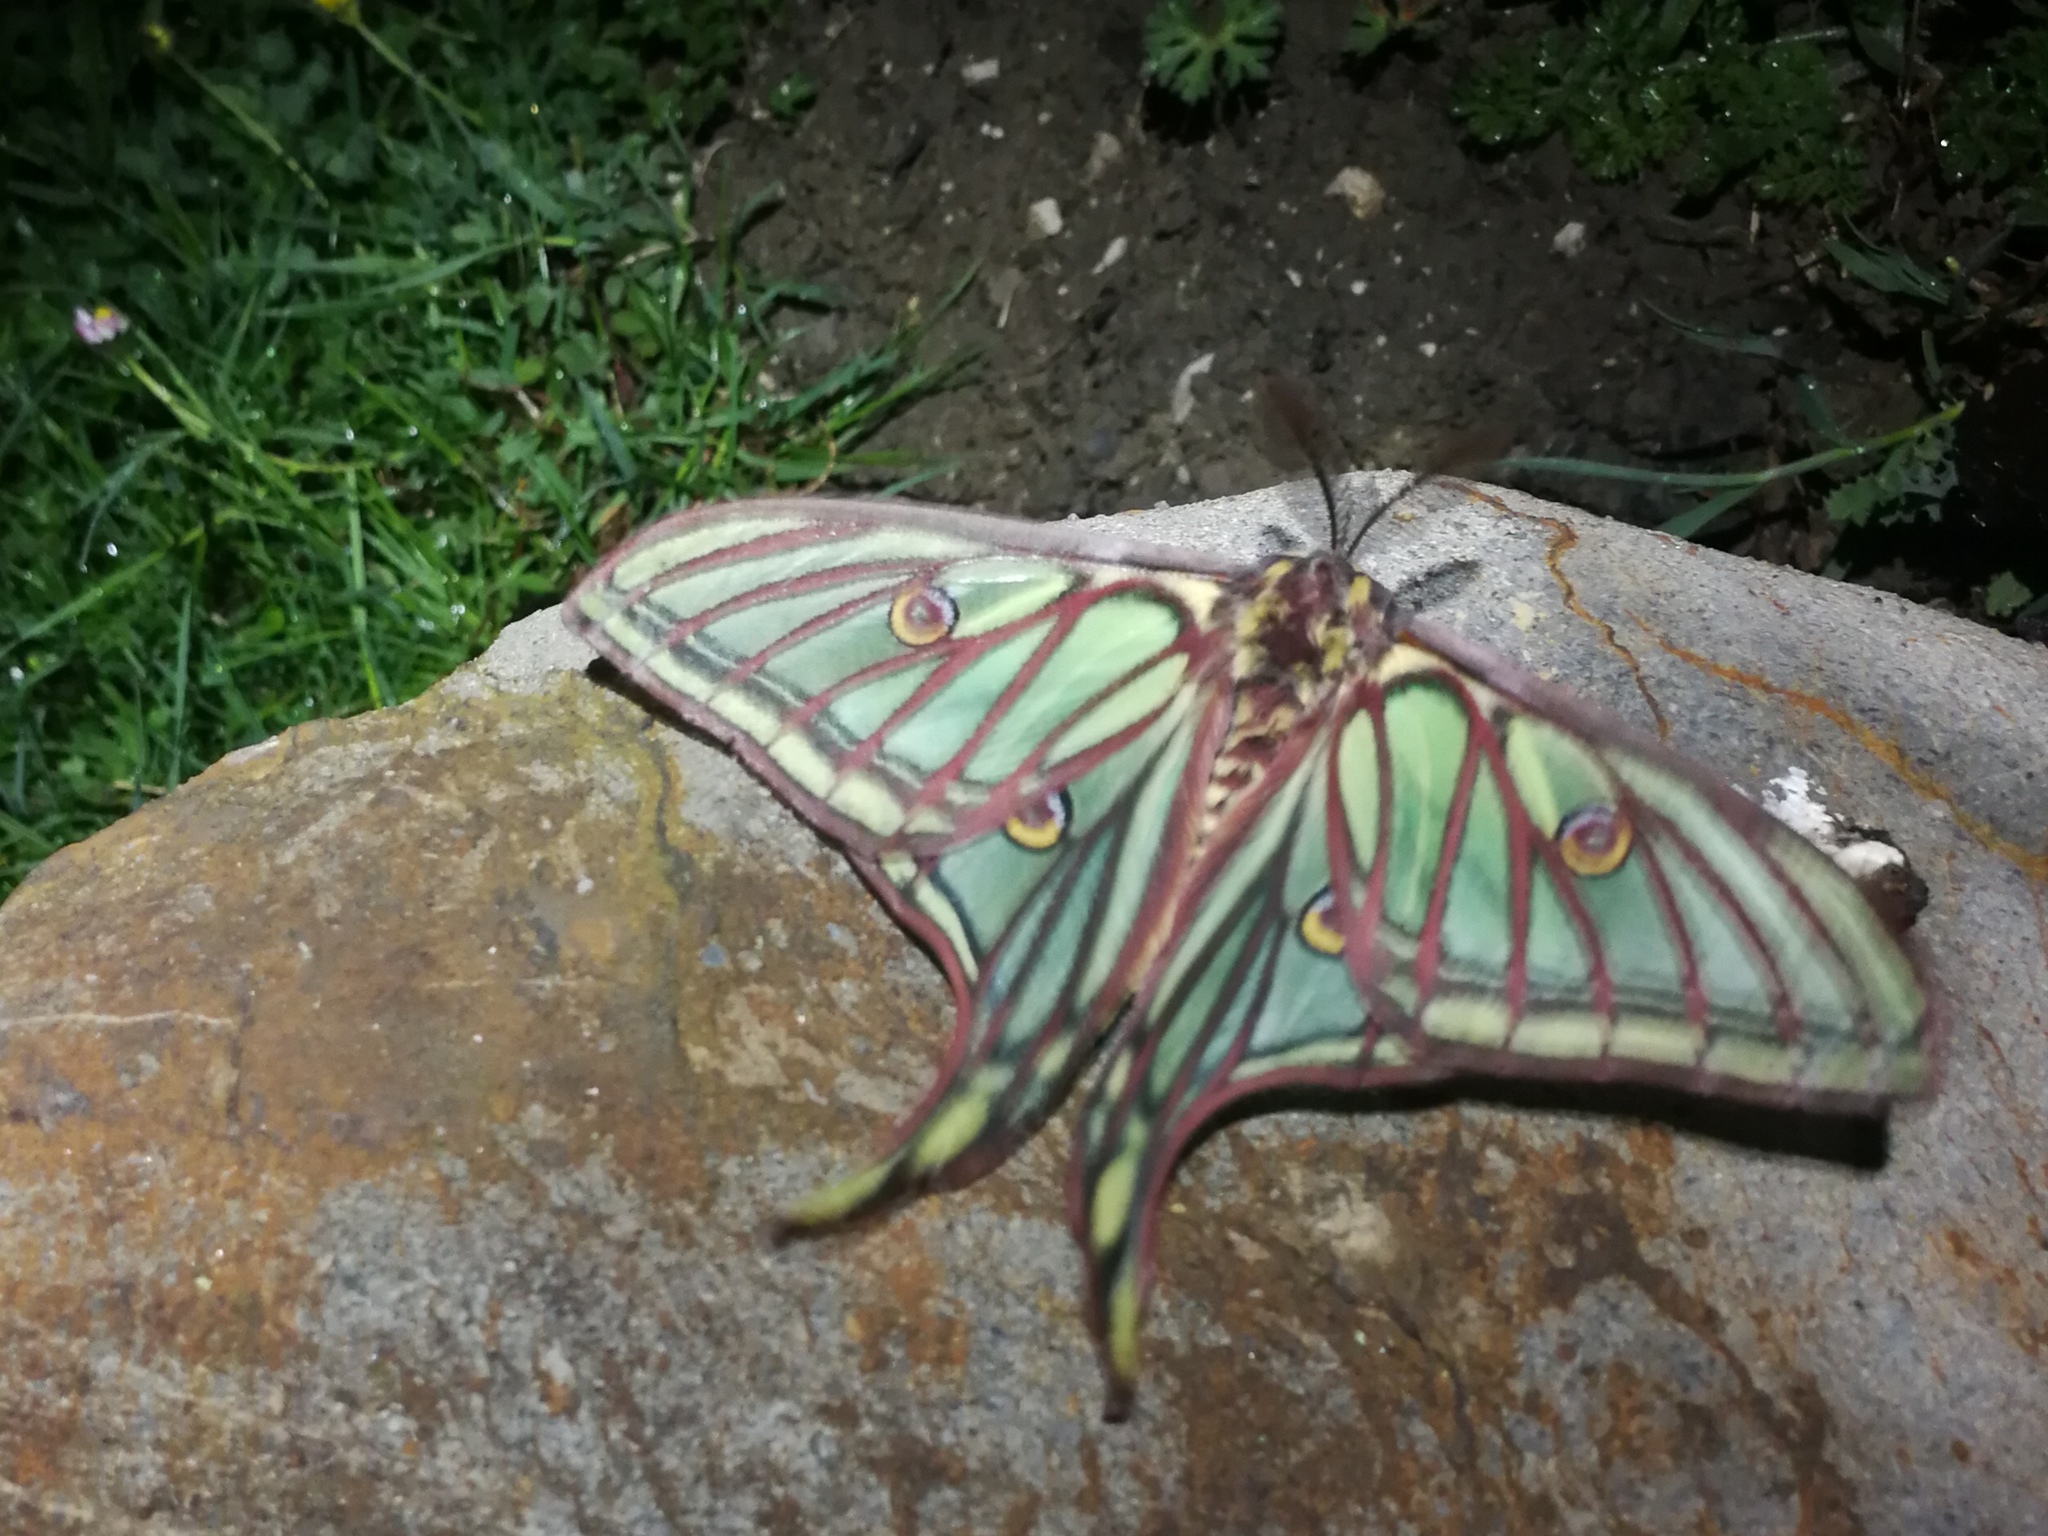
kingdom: Animalia
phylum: Arthropoda
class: Insecta
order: Lepidoptera
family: Saturniidae
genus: Graellsia
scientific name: Graellsia isabellae
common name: Spanish moon moth
